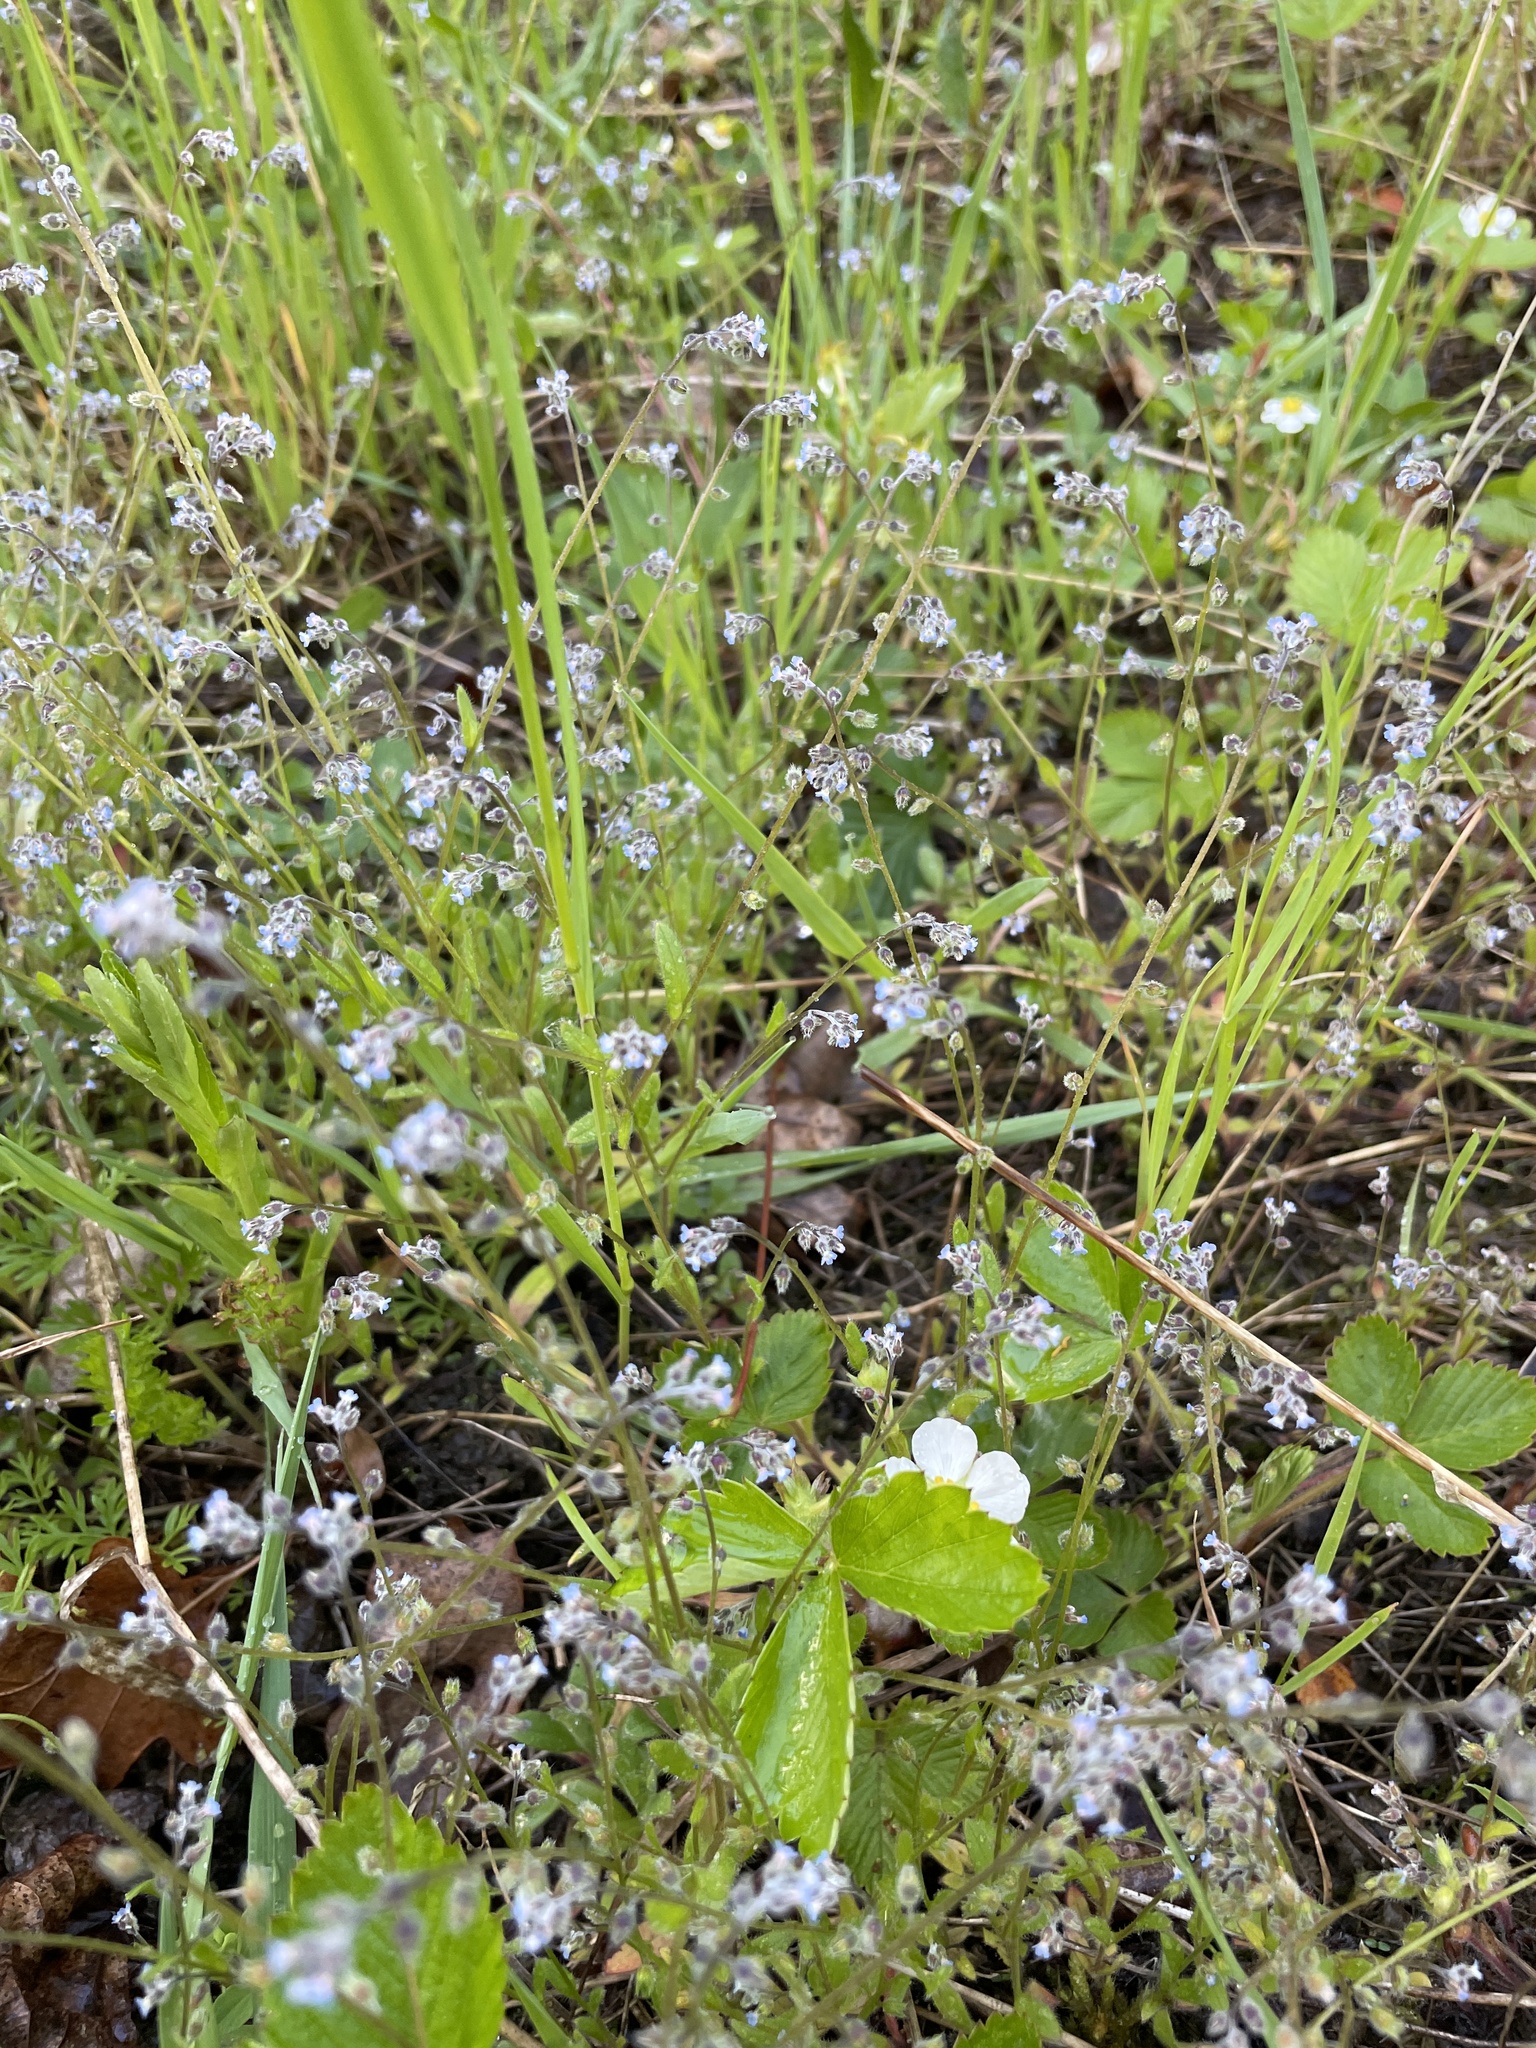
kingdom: Plantae
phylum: Tracheophyta
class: Magnoliopsida
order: Boraginales
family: Boraginaceae
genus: Myosotis
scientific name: Myosotis ramosissima
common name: Early forget-me-not
